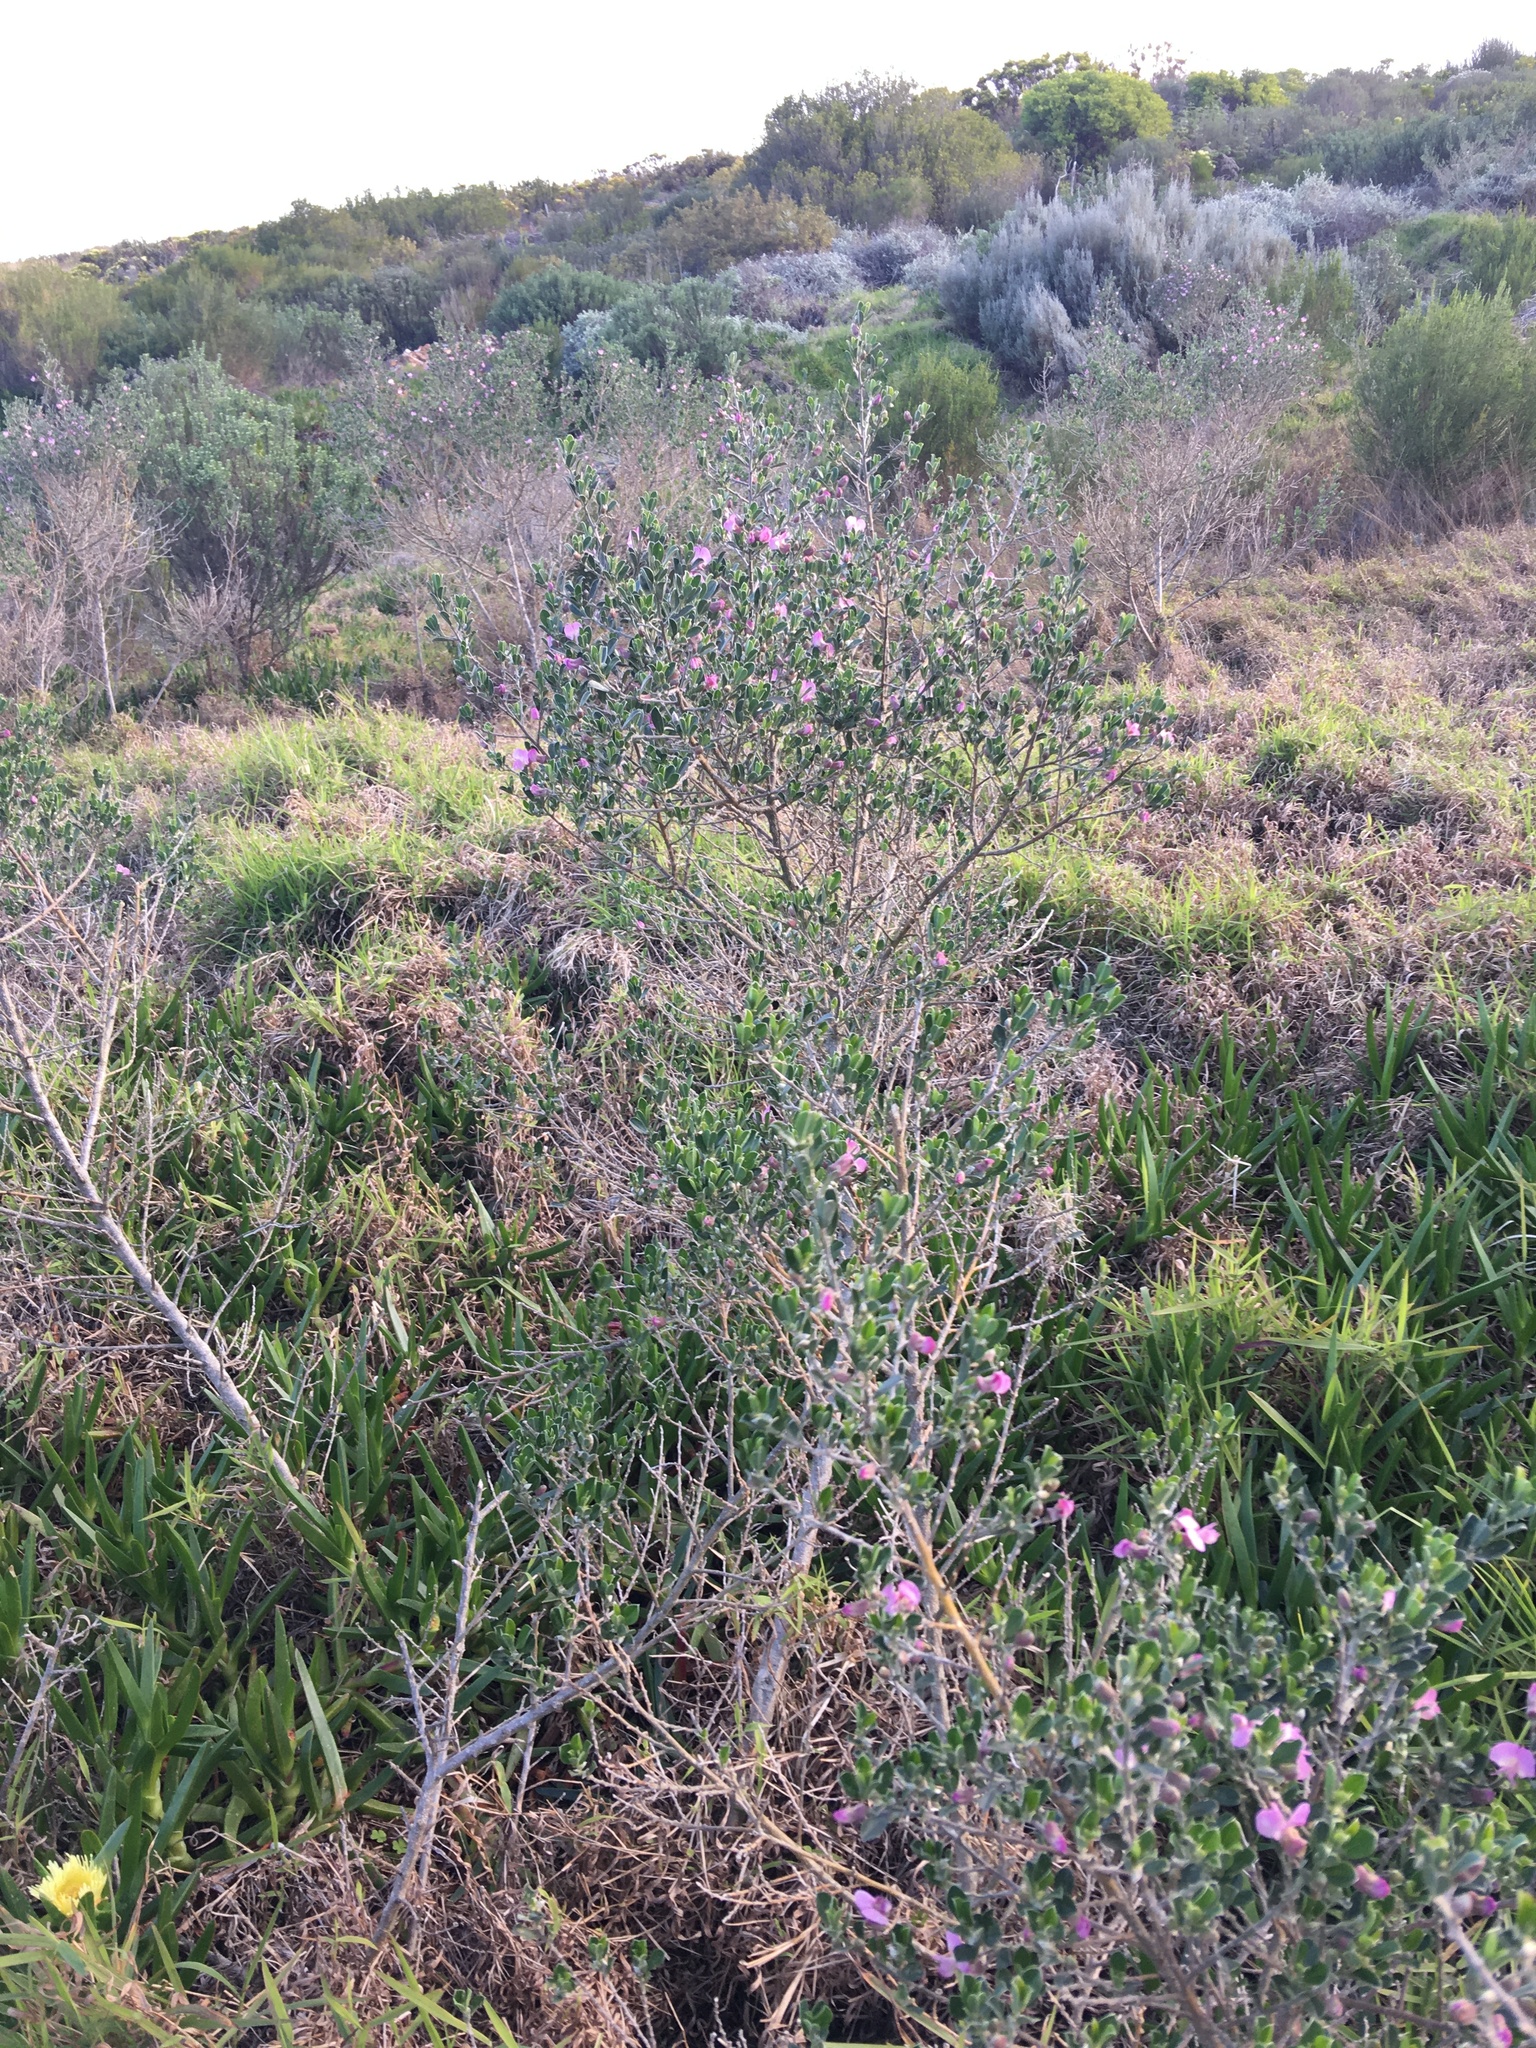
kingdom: Plantae
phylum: Tracheophyta
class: Magnoliopsida
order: Fabales
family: Fabaceae
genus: Podalyria
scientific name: Podalyria myrtillifolia
